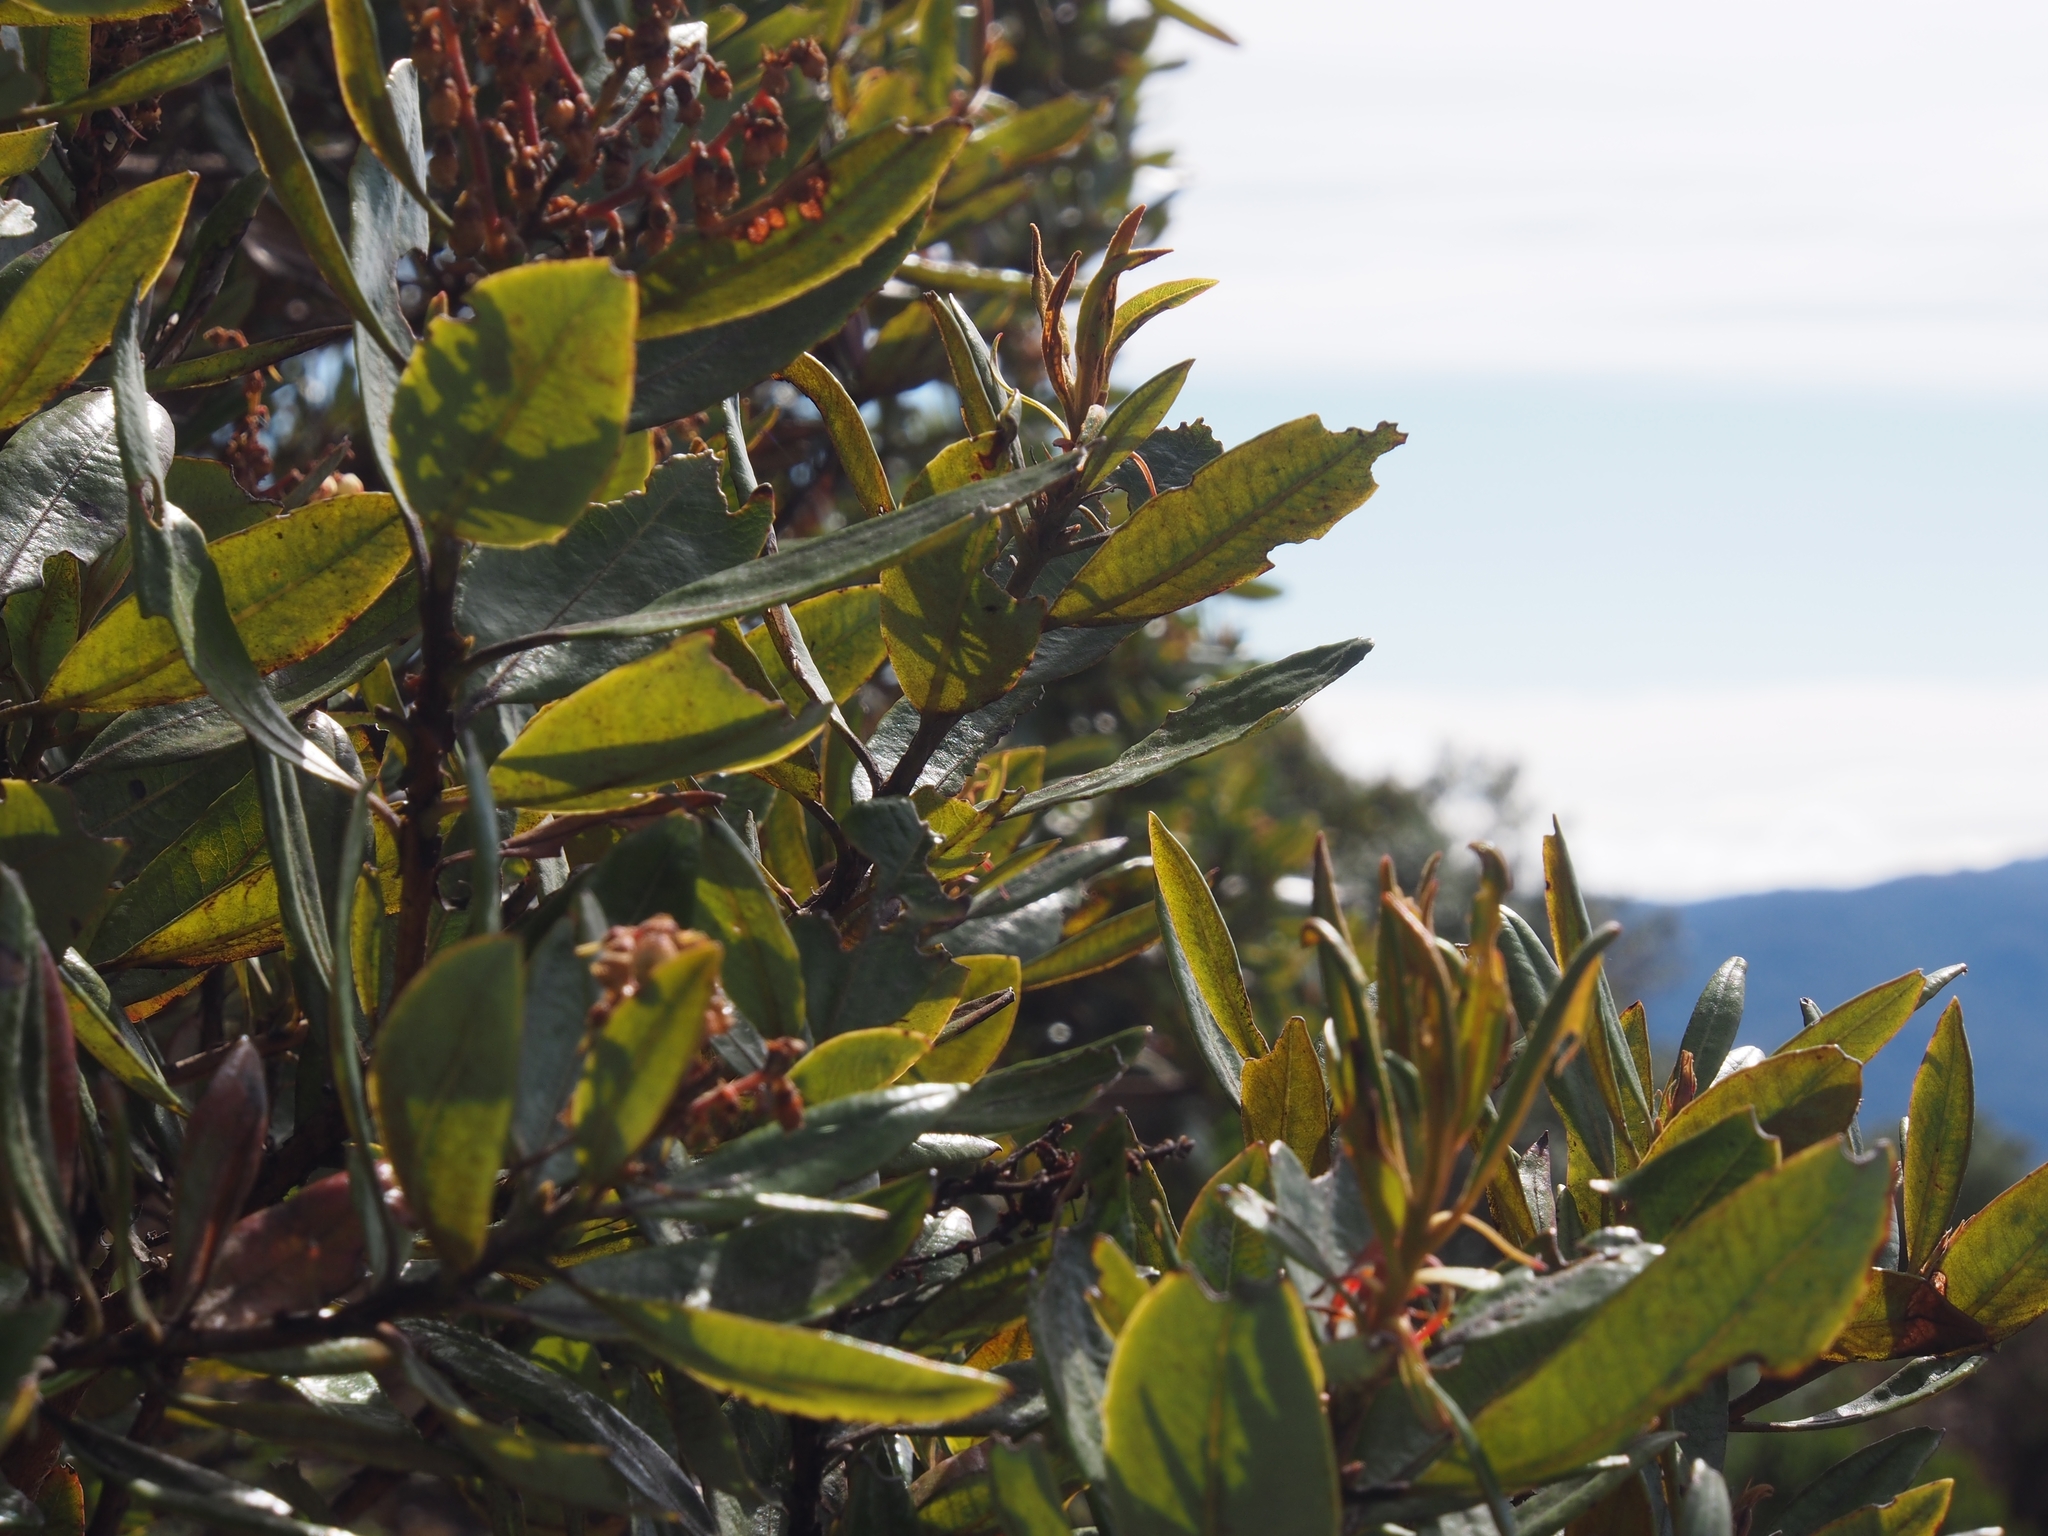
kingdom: Plantae
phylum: Tracheophyta
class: Magnoliopsida
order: Ericales
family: Ericaceae
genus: Comarostaphylis
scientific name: Comarostaphylis arbutoides
